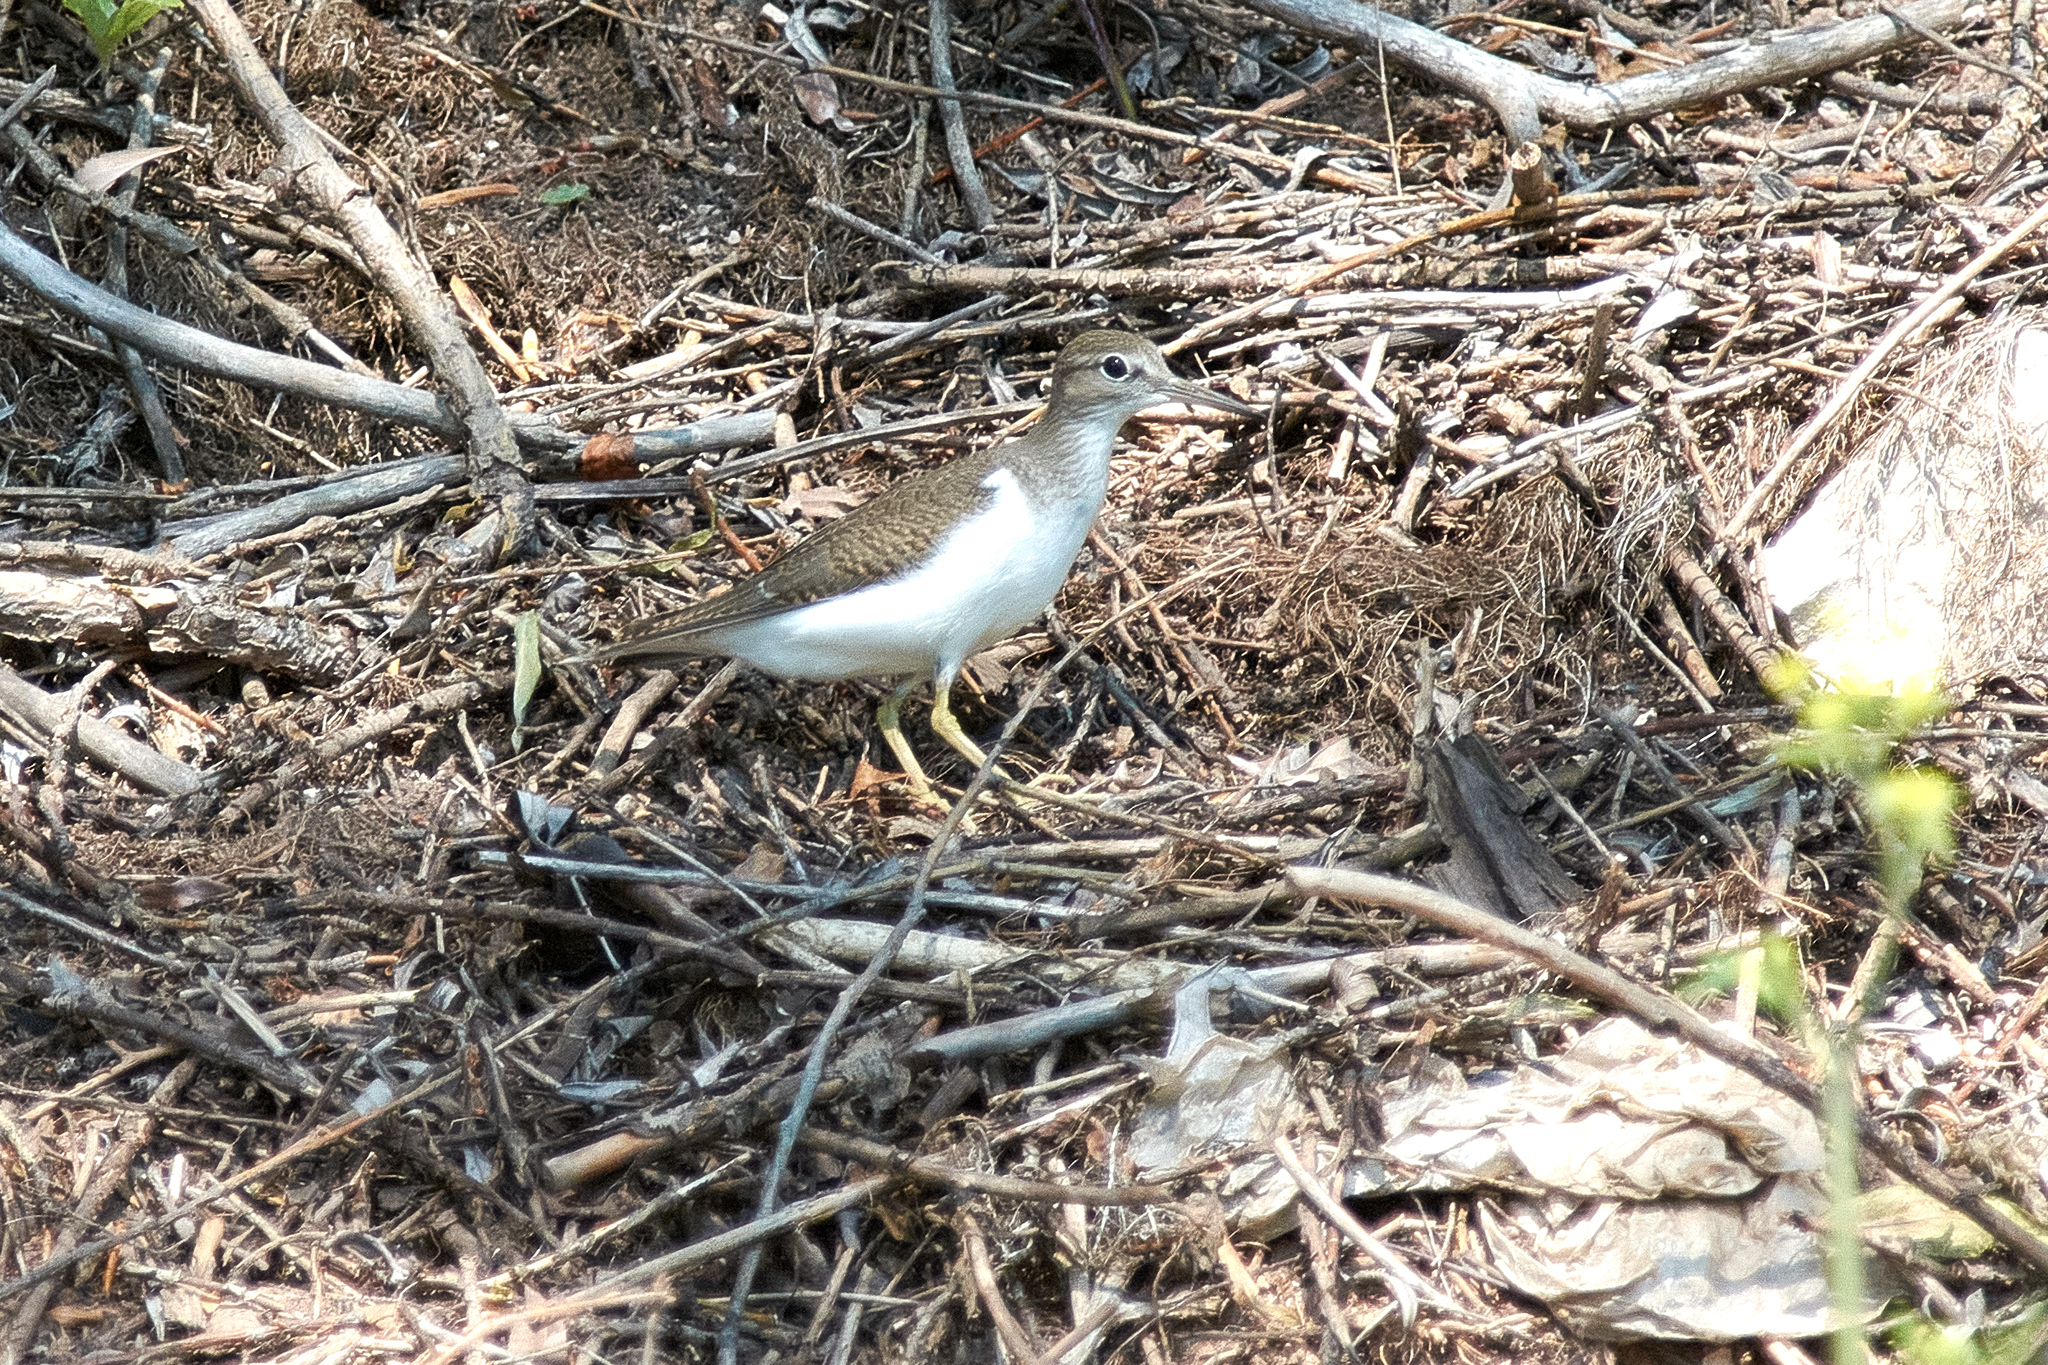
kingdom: Animalia
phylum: Chordata
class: Aves
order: Charadriiformes
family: Scolopacidae
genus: Actitis
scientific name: Actitis hypoleucos
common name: Common sandpiper
